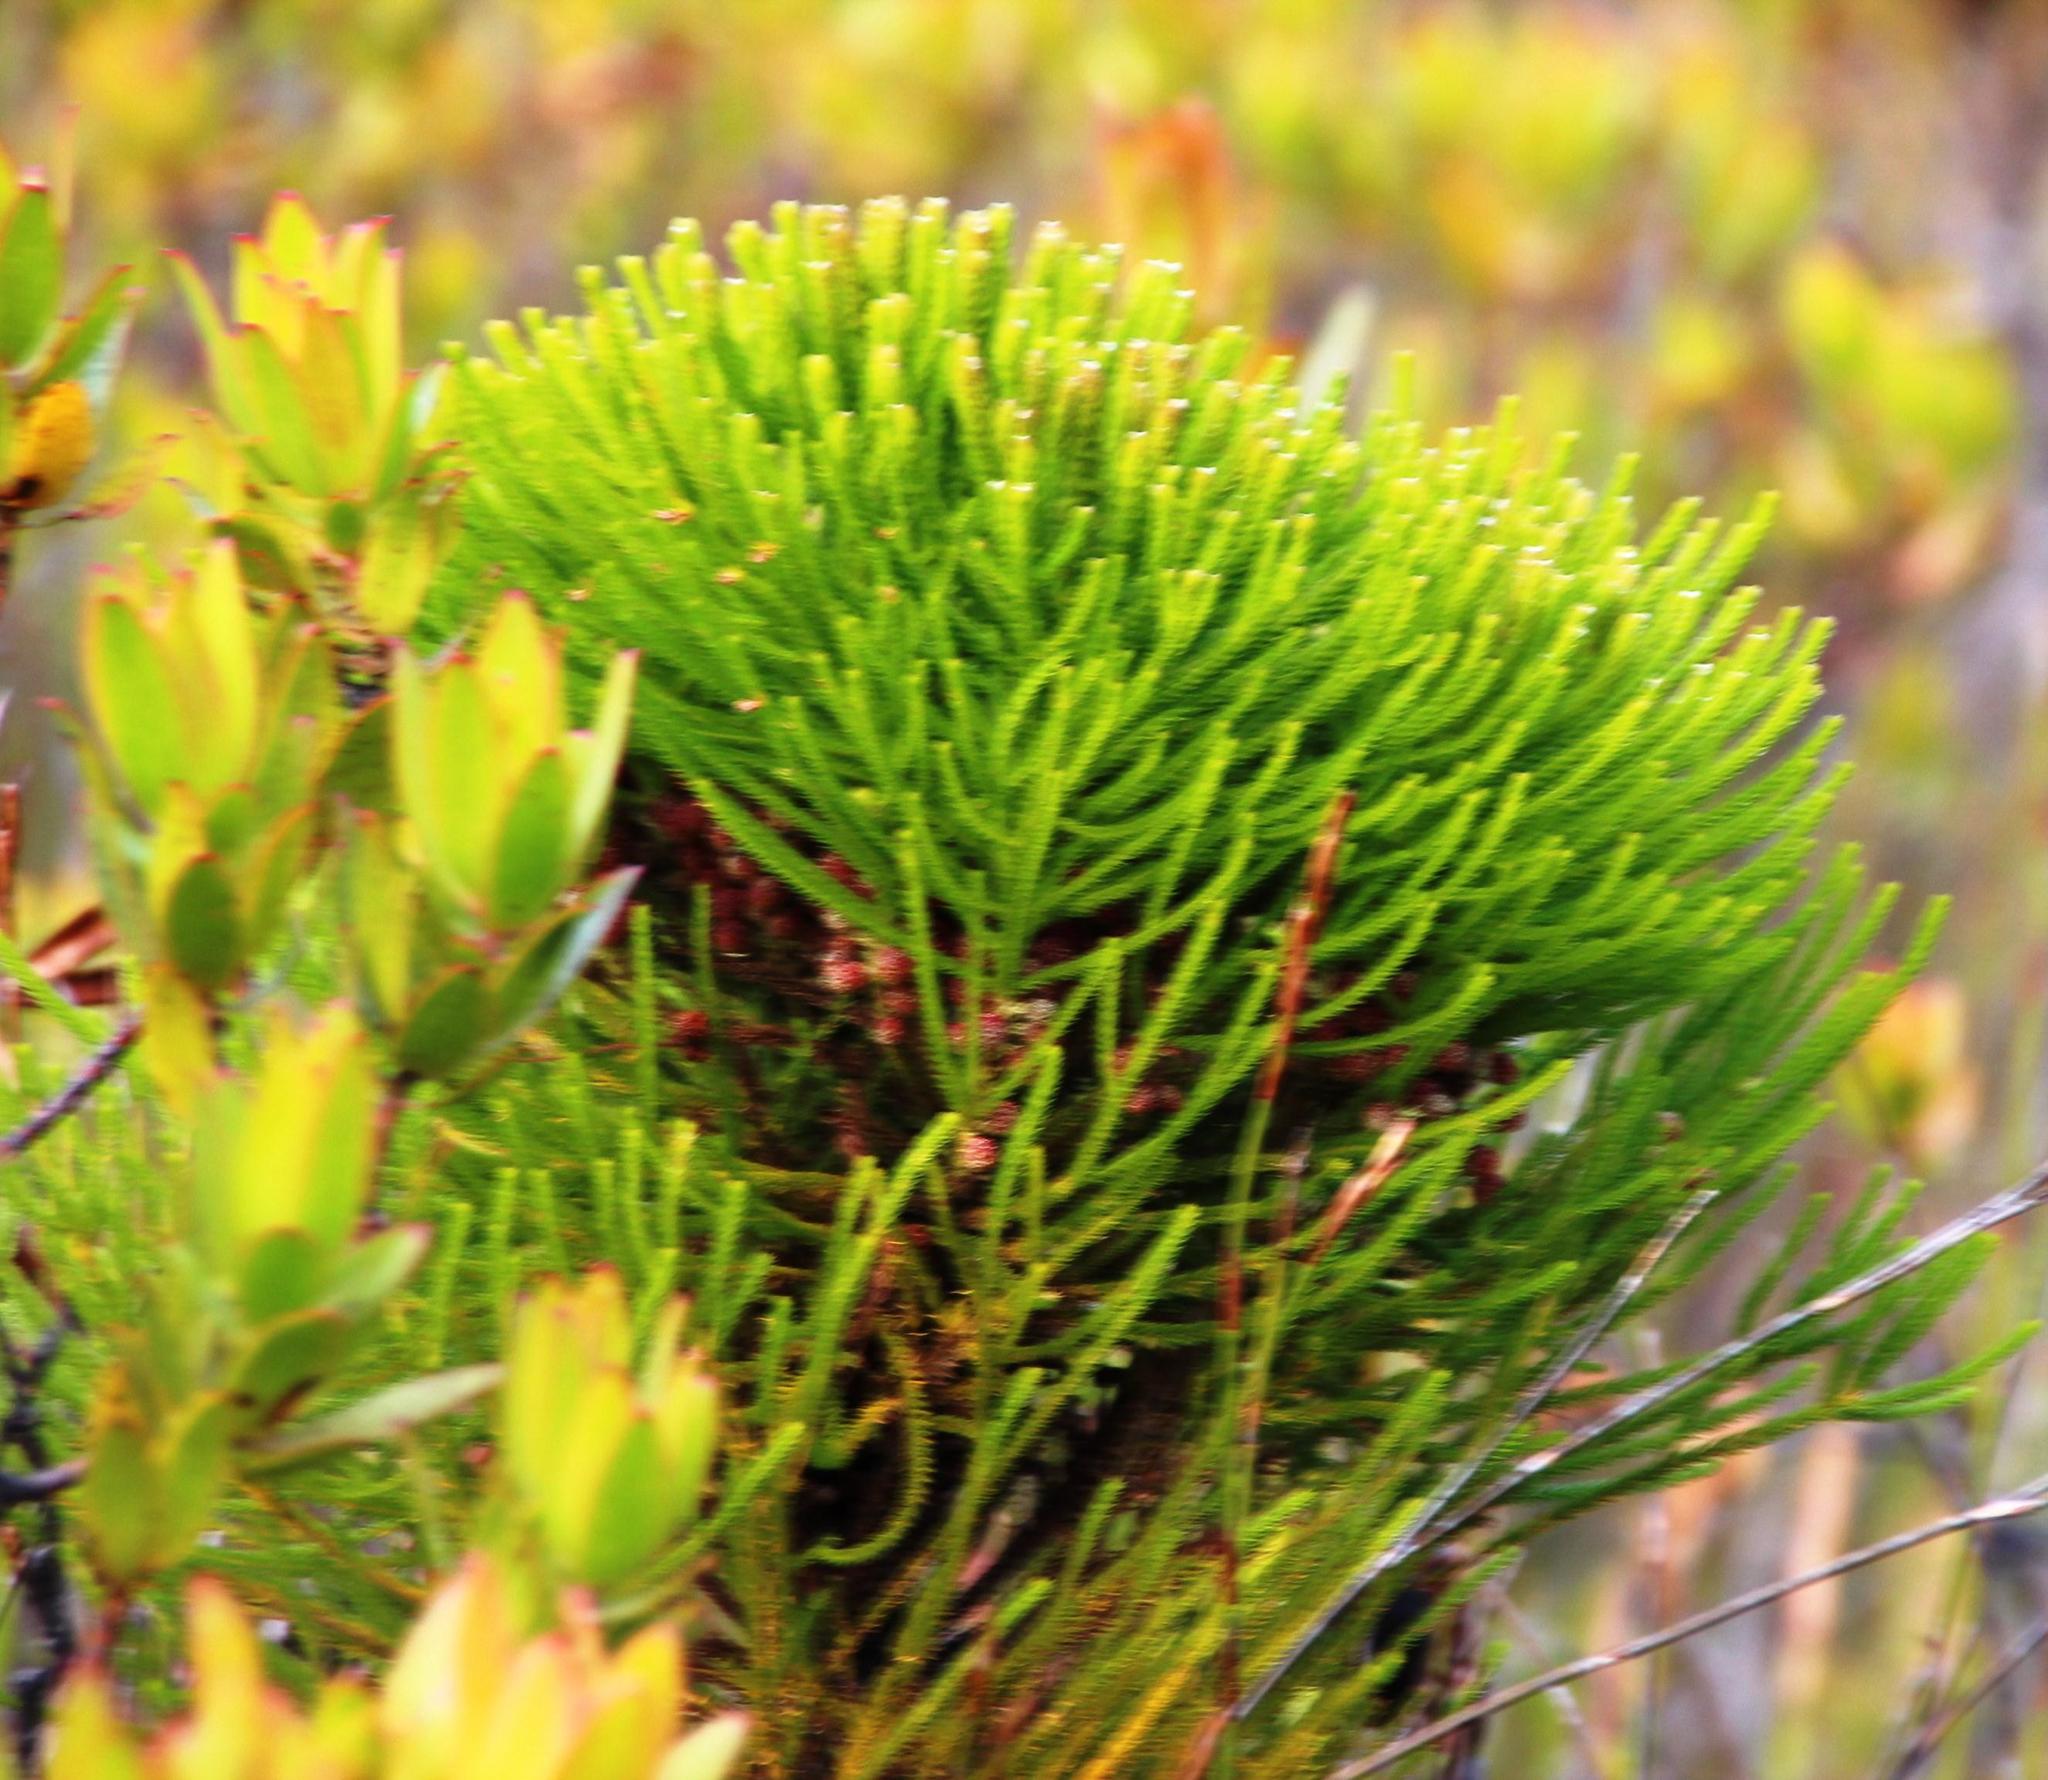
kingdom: Plantae
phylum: Tracheophyta
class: Magnoliopsida
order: Bruniales
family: Bruniaceae
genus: Berzelia
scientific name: Berzelia alopecurioides
